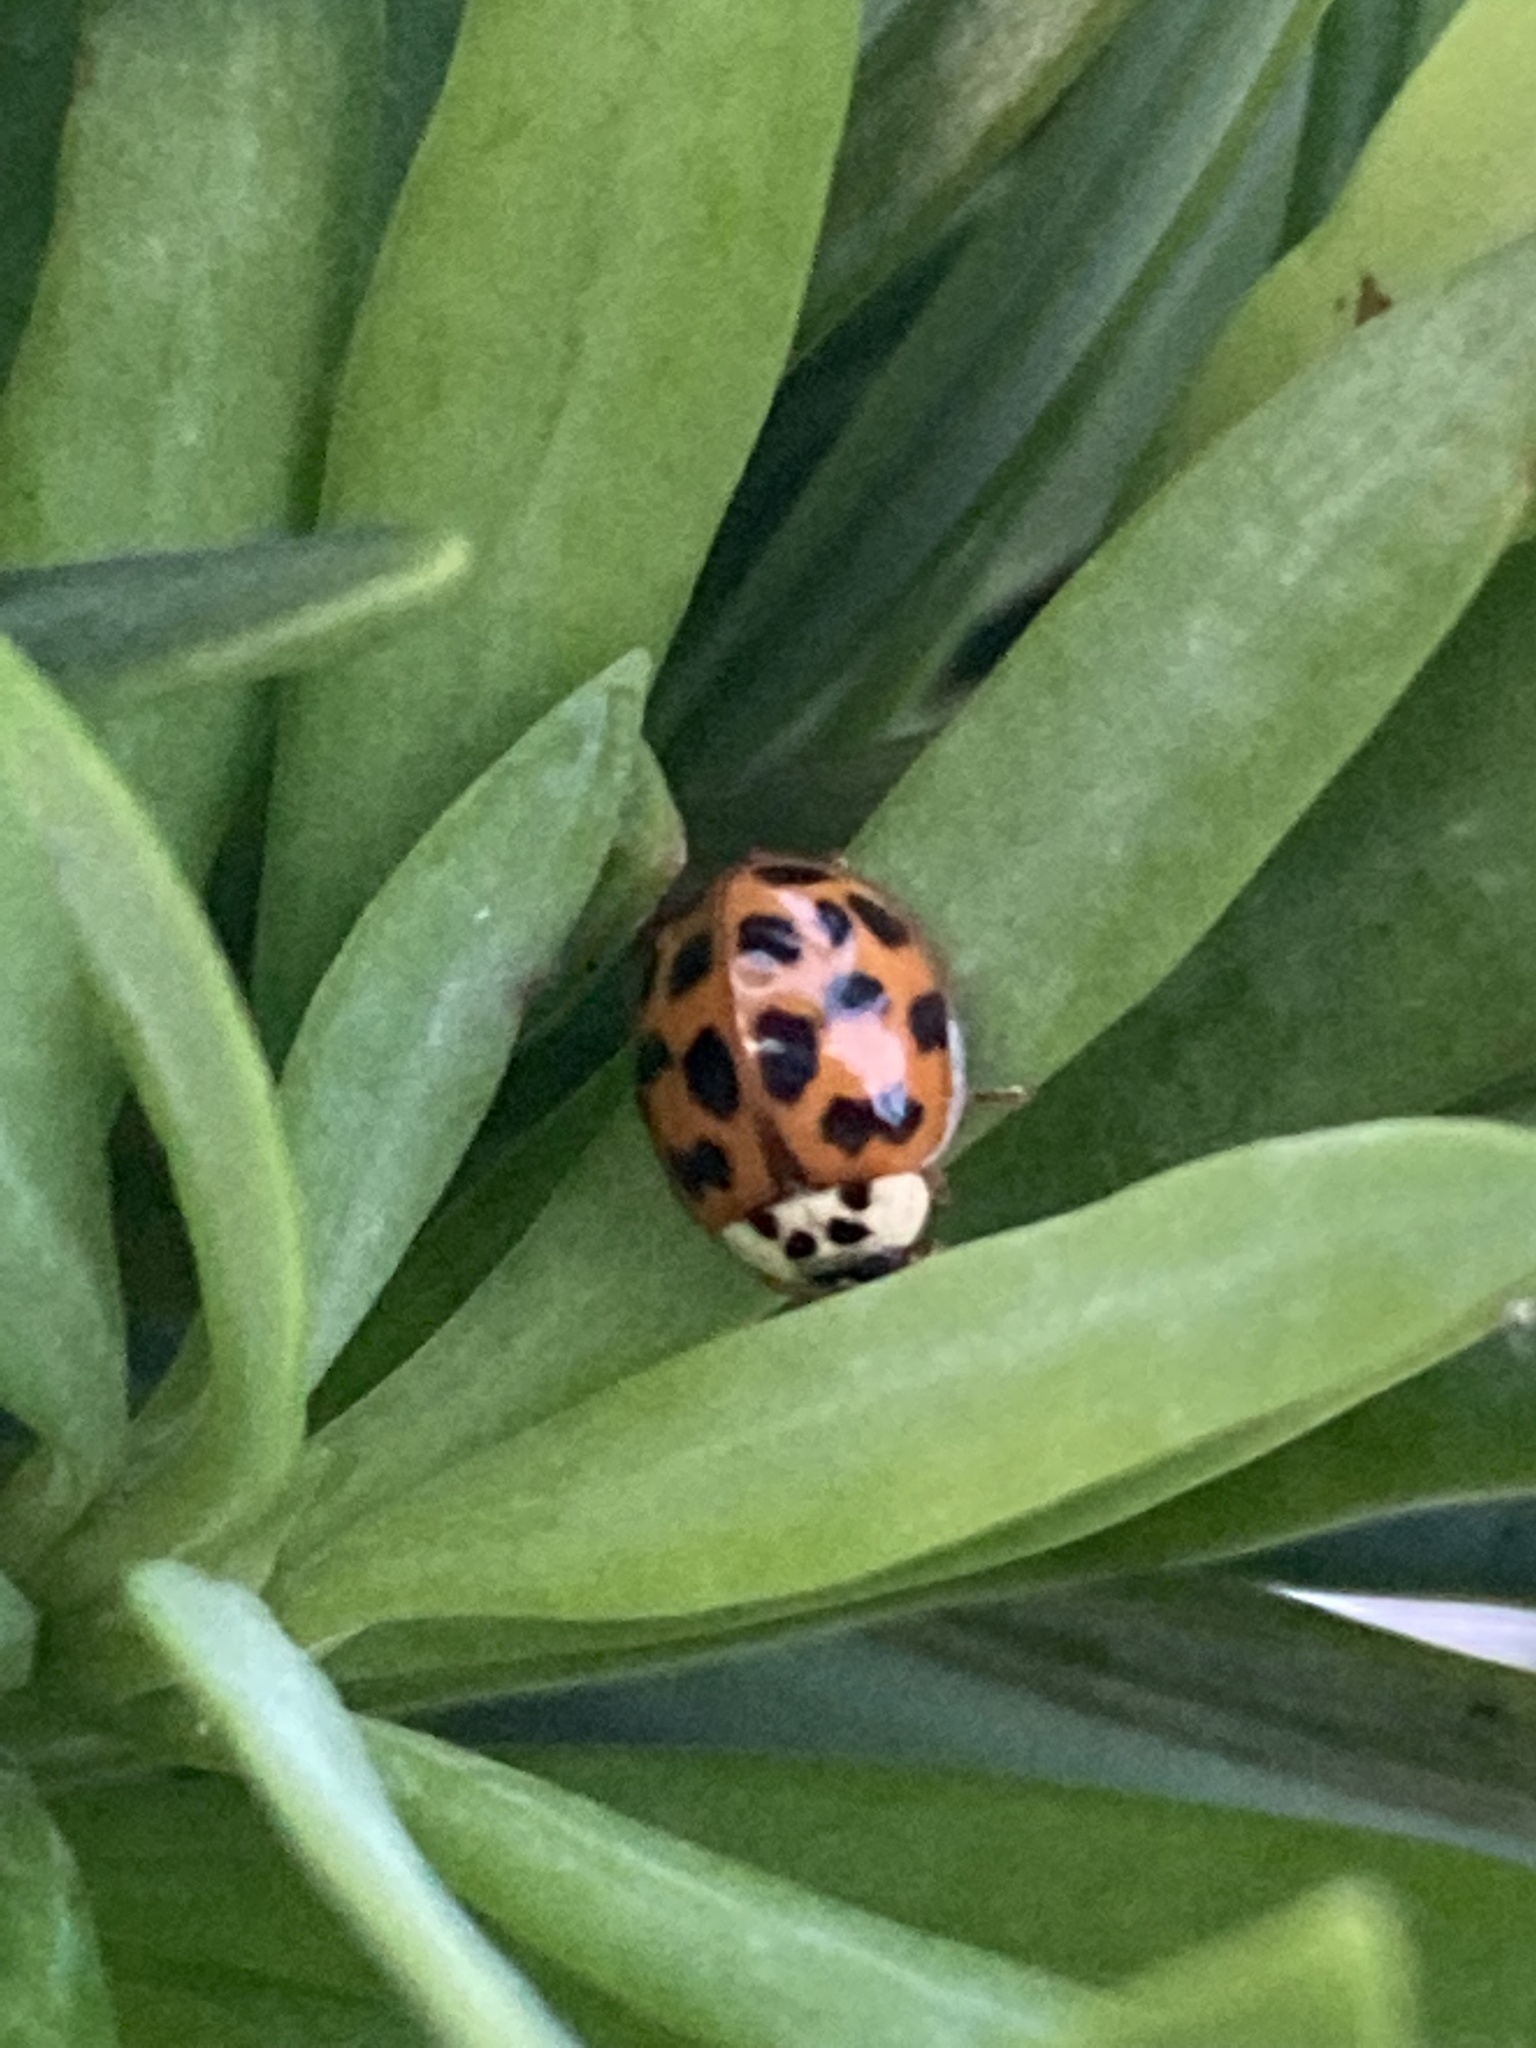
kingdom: Animalia
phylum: Arthropoda
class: Insecta
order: Coleoptera
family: Coccinellidae
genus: Harmonia
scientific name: Harmonia axyridis
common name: Harlequin ladybird
